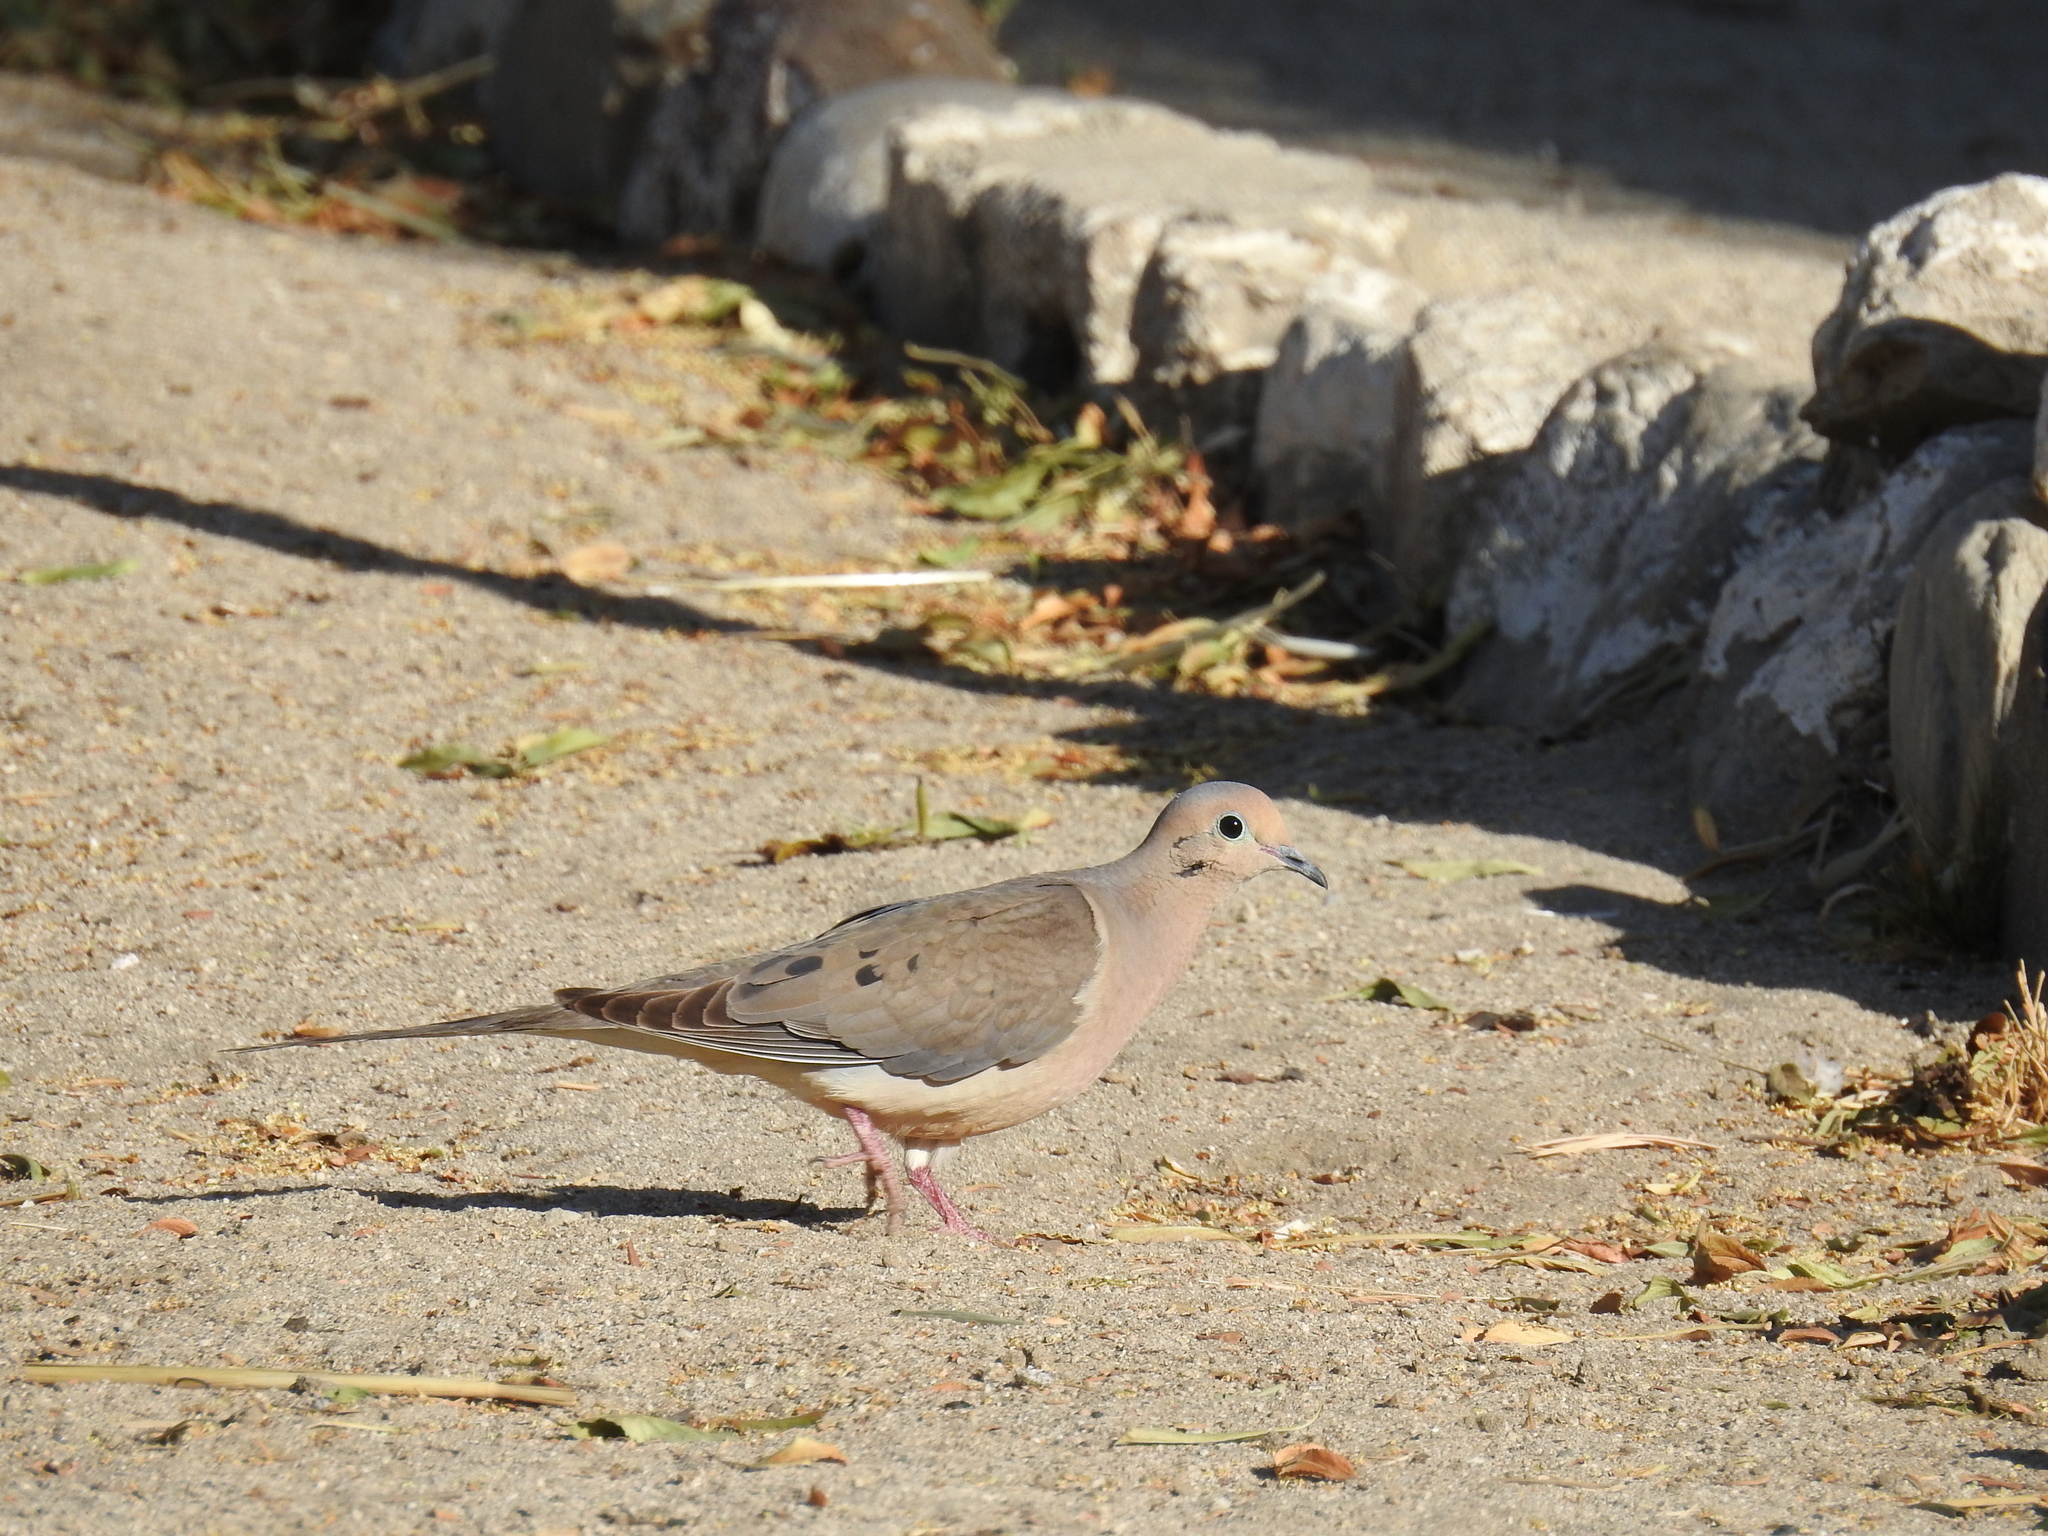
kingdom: Animalia
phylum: Chordata
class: Aves
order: Columbiformes
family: Columbidae
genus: Zenaida
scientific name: Zenaida macroura
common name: Mourning dove
